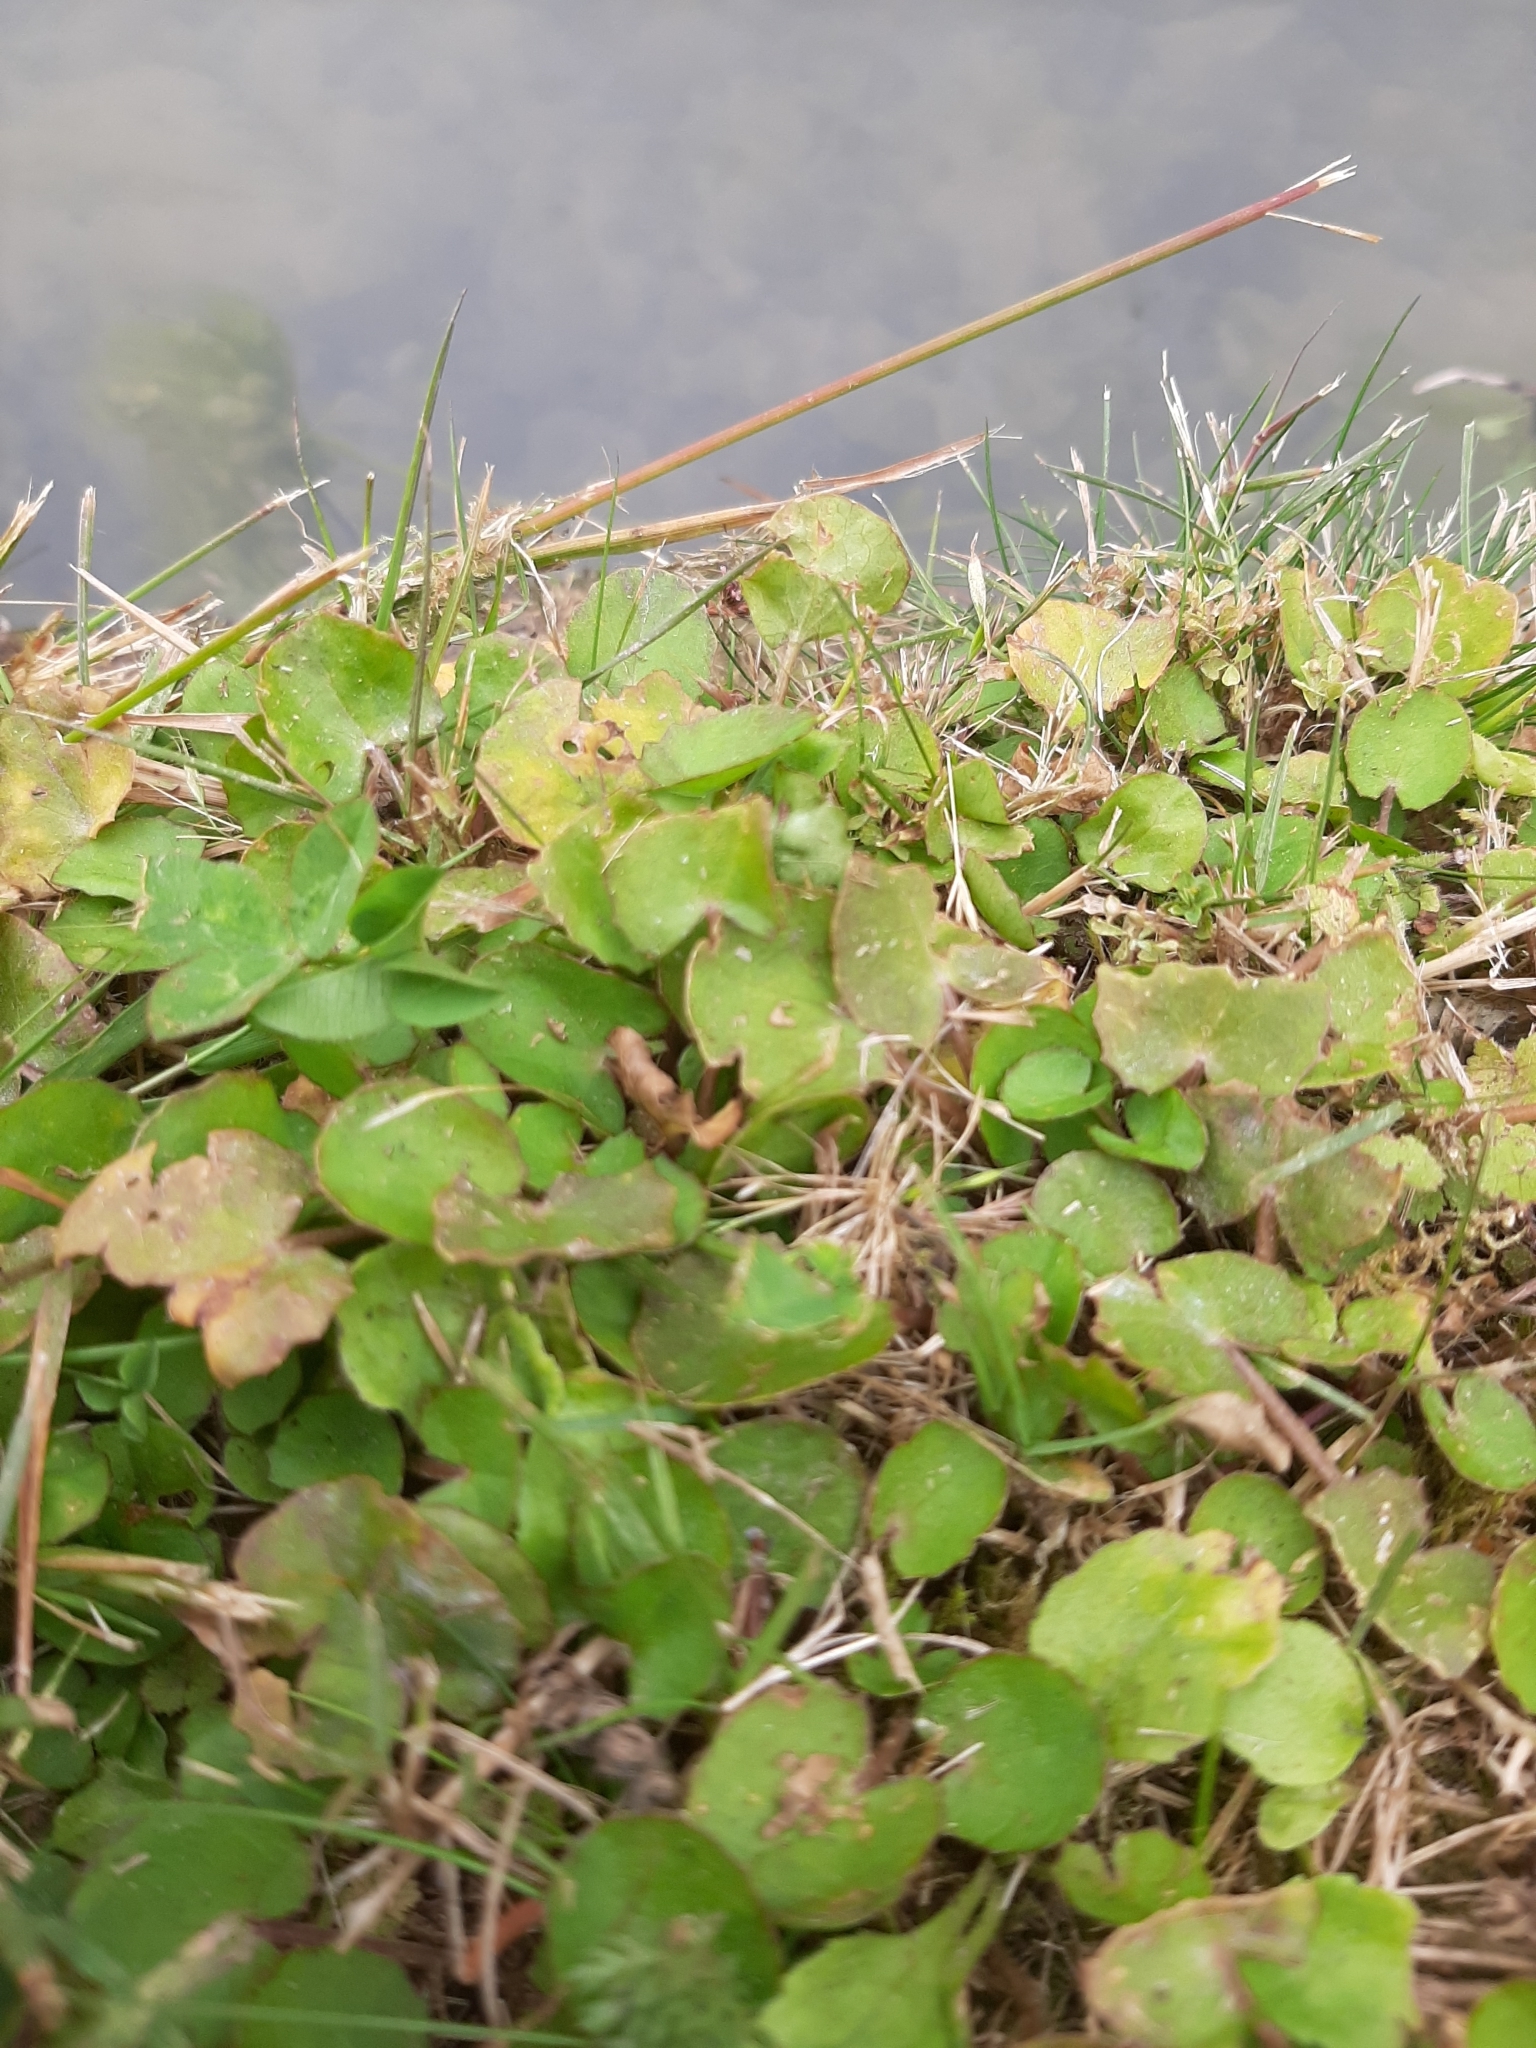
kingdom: Plantae
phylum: Tracheophyta
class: Magnoliopsida
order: Apiales
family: Apiaceae
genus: Centella
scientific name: Centella uniflora
